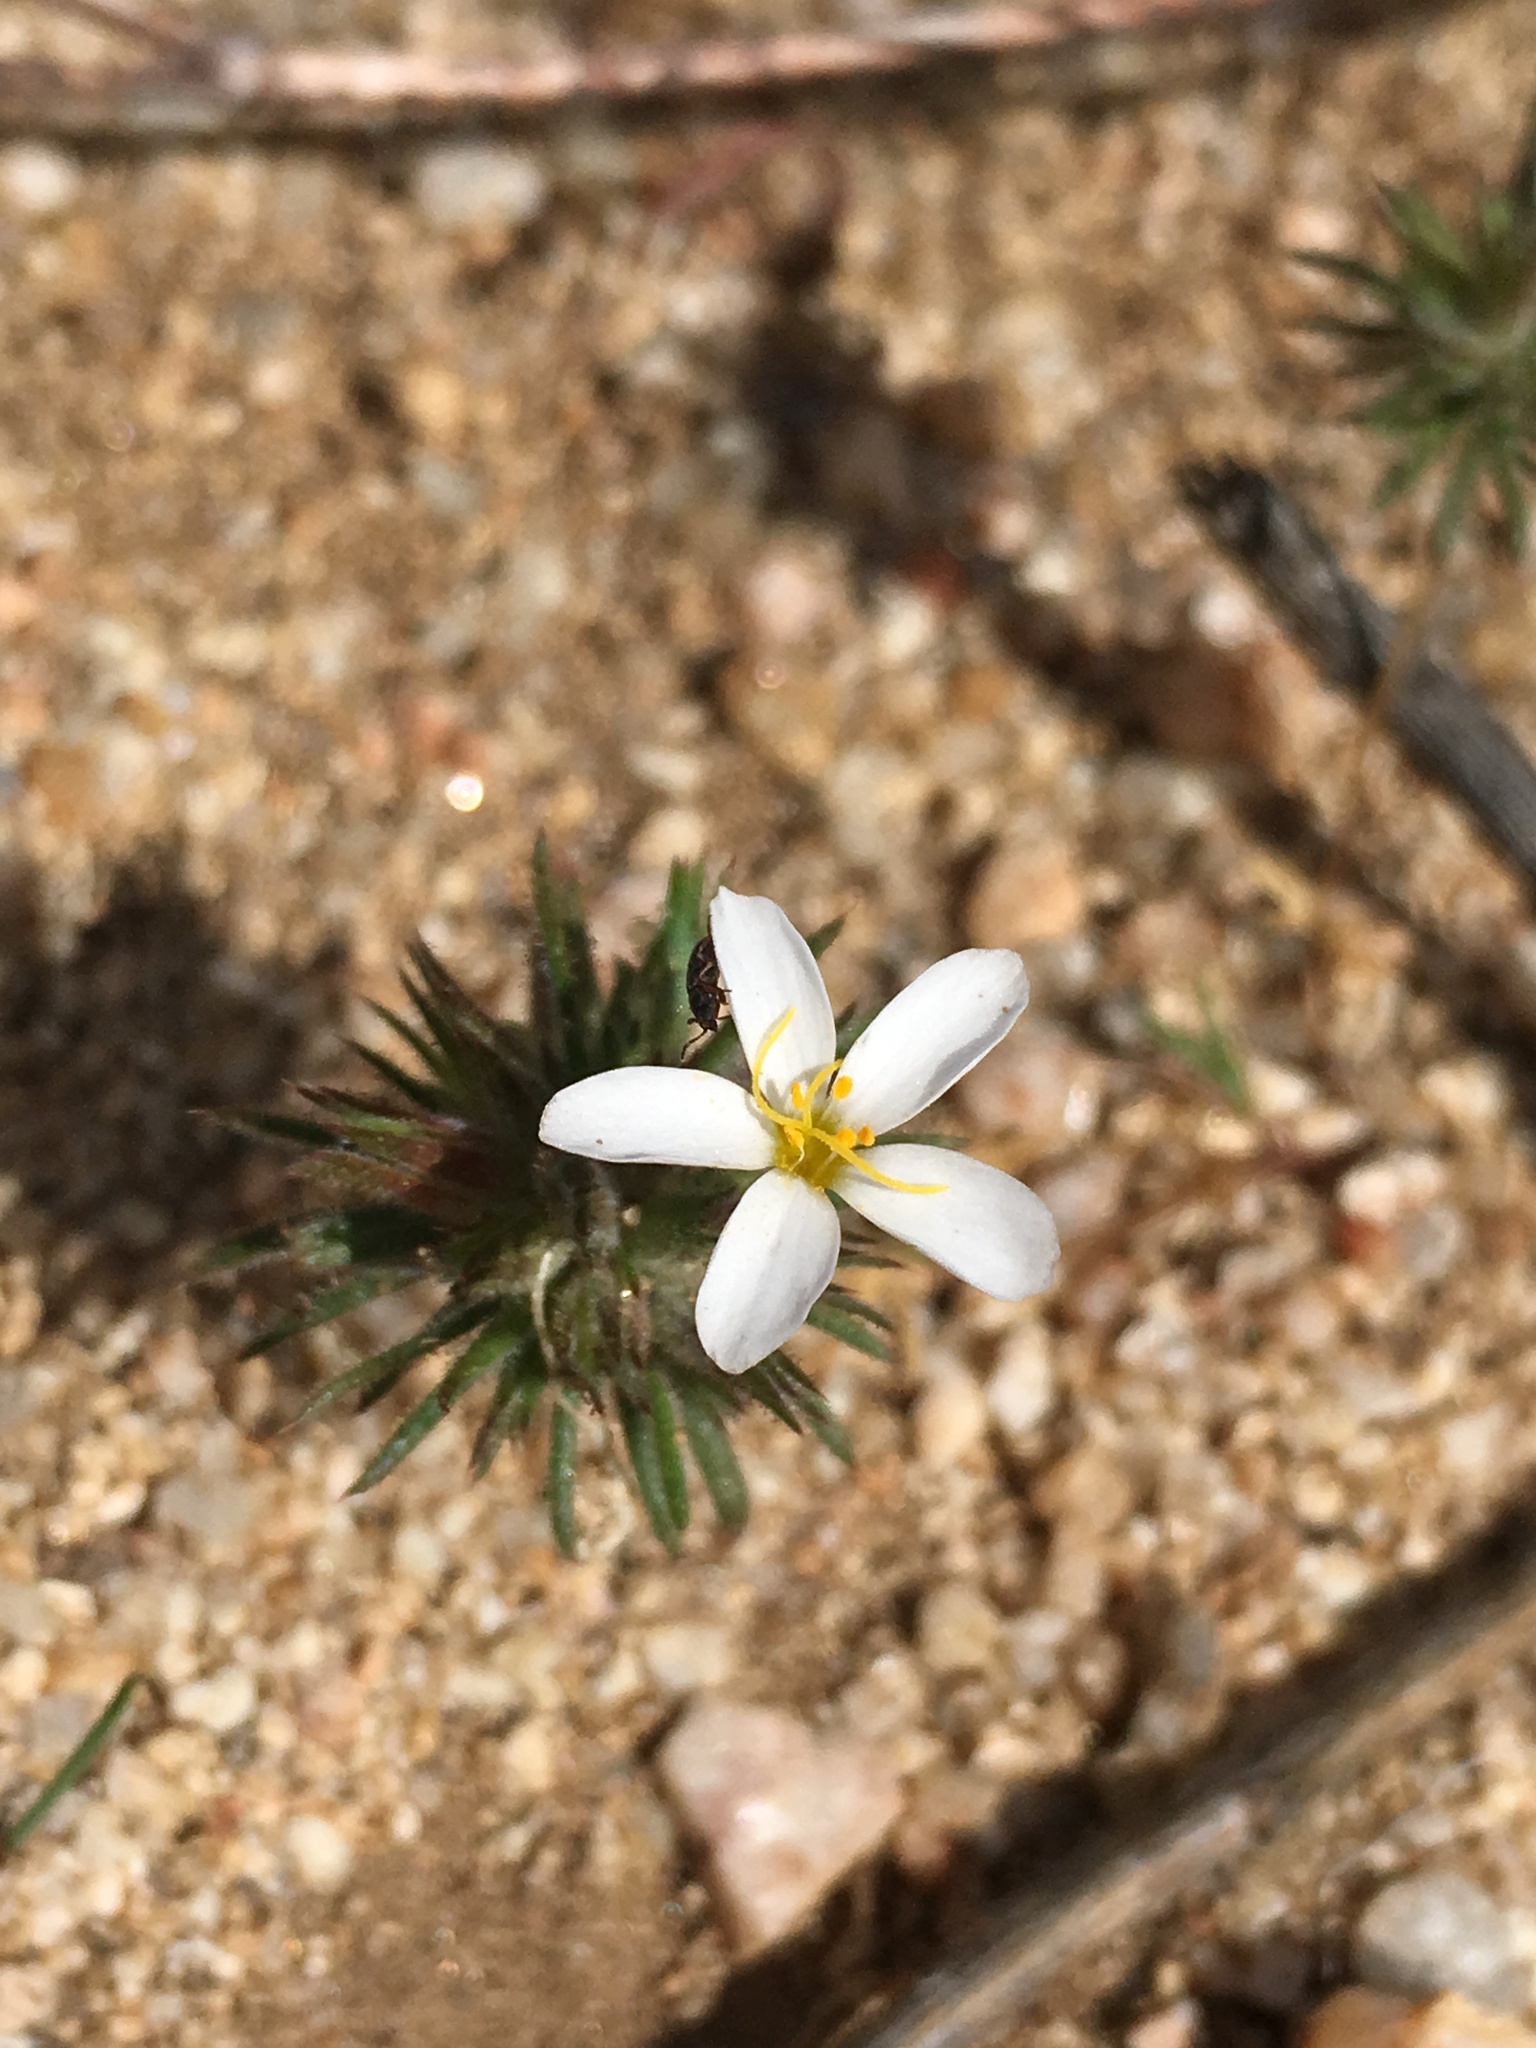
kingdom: Plantae
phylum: Tracheophyta
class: Magnoliopsida
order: Ericales
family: Polemoniaceae
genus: Leptosiphon
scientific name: Leptosiphon parviflorus
